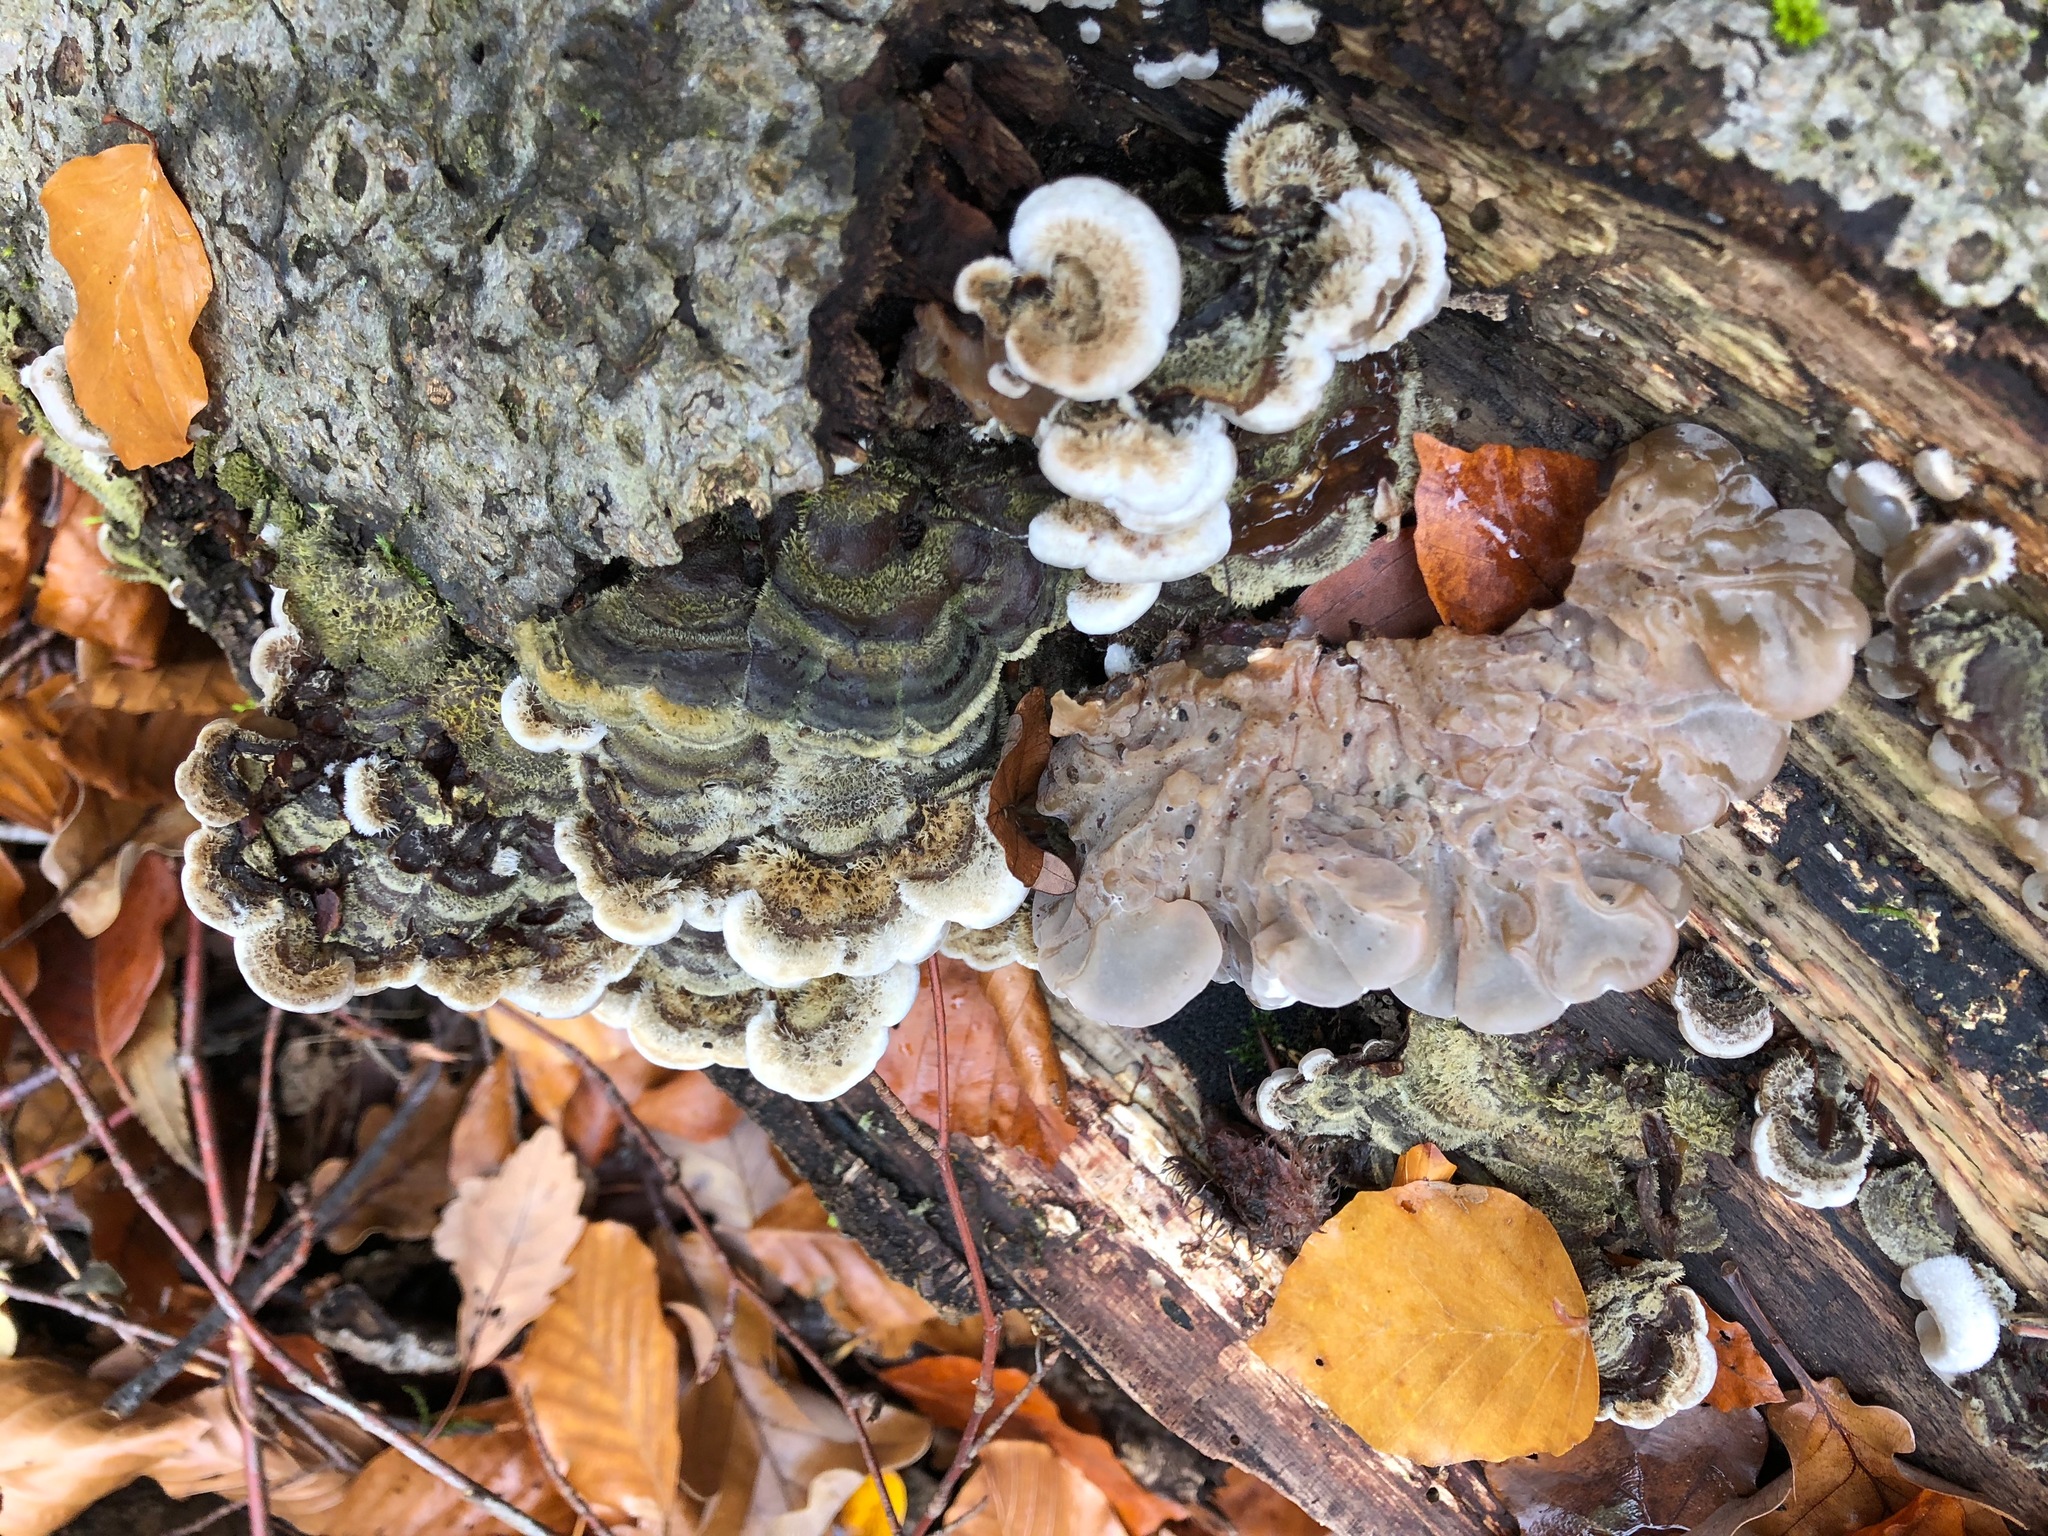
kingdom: Fungi
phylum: Basidiomycota
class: Agaricomycetes
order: Auriculariales
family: Auriculariaceae
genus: Auricularia
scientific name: Auricularia mesenterica
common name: Tripe fungus
